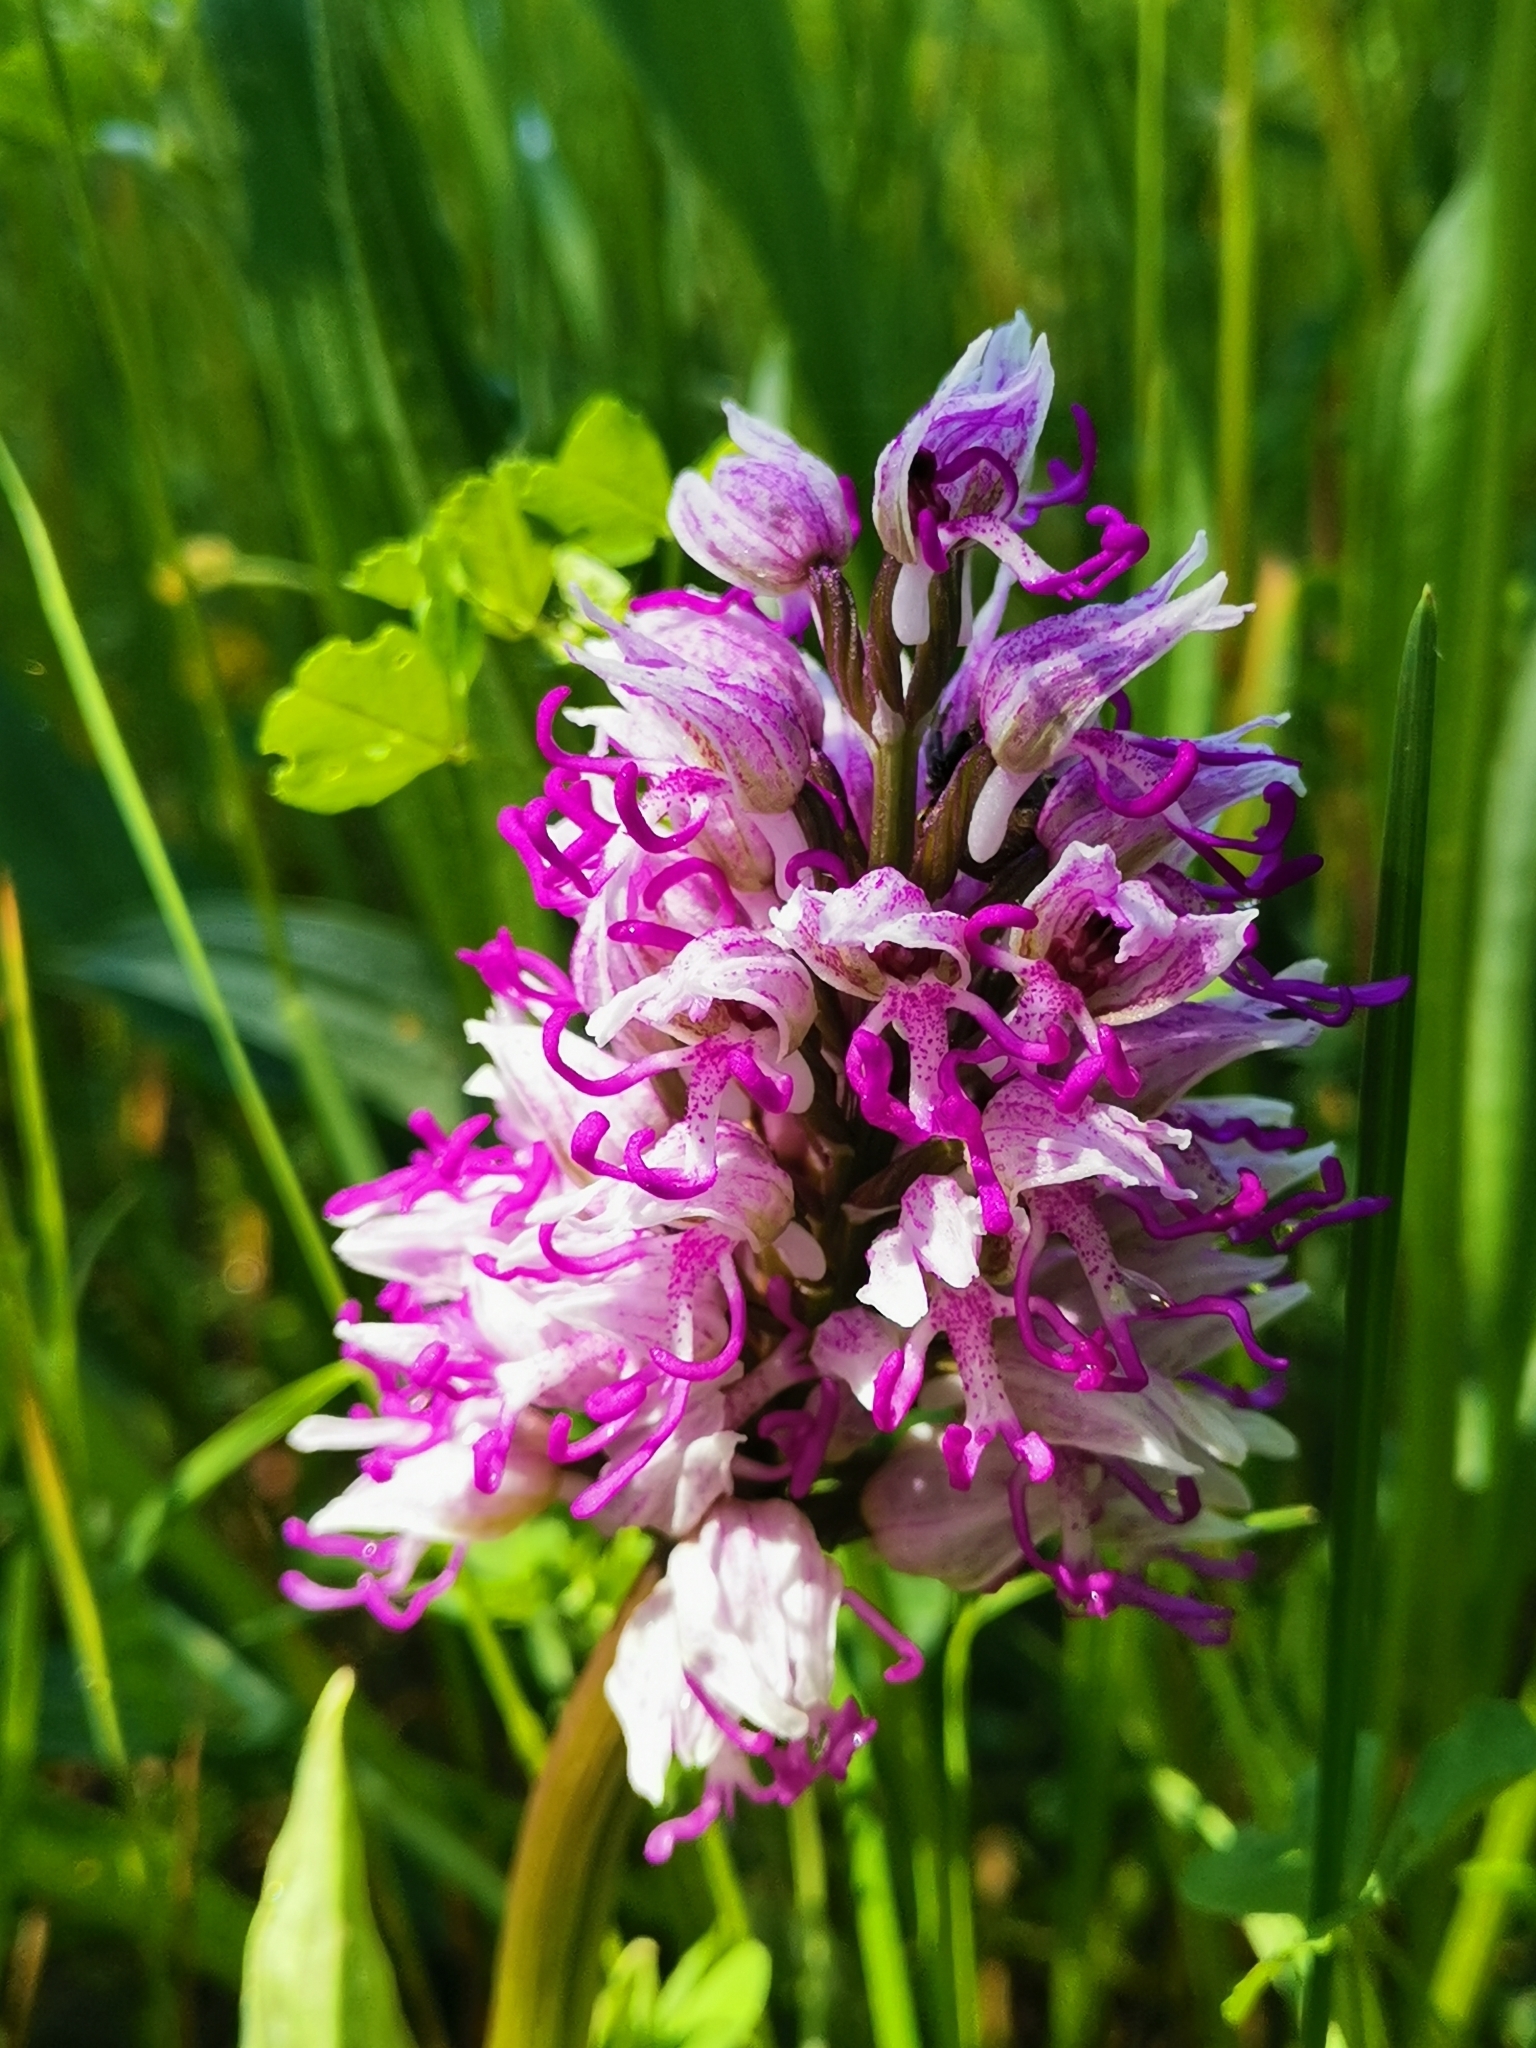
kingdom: Plantae
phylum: Tracheophyta
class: Liliopsida
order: Asparagales
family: Orchidaceae
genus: Orchis
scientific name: Orchis simia
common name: Monkey orchid
